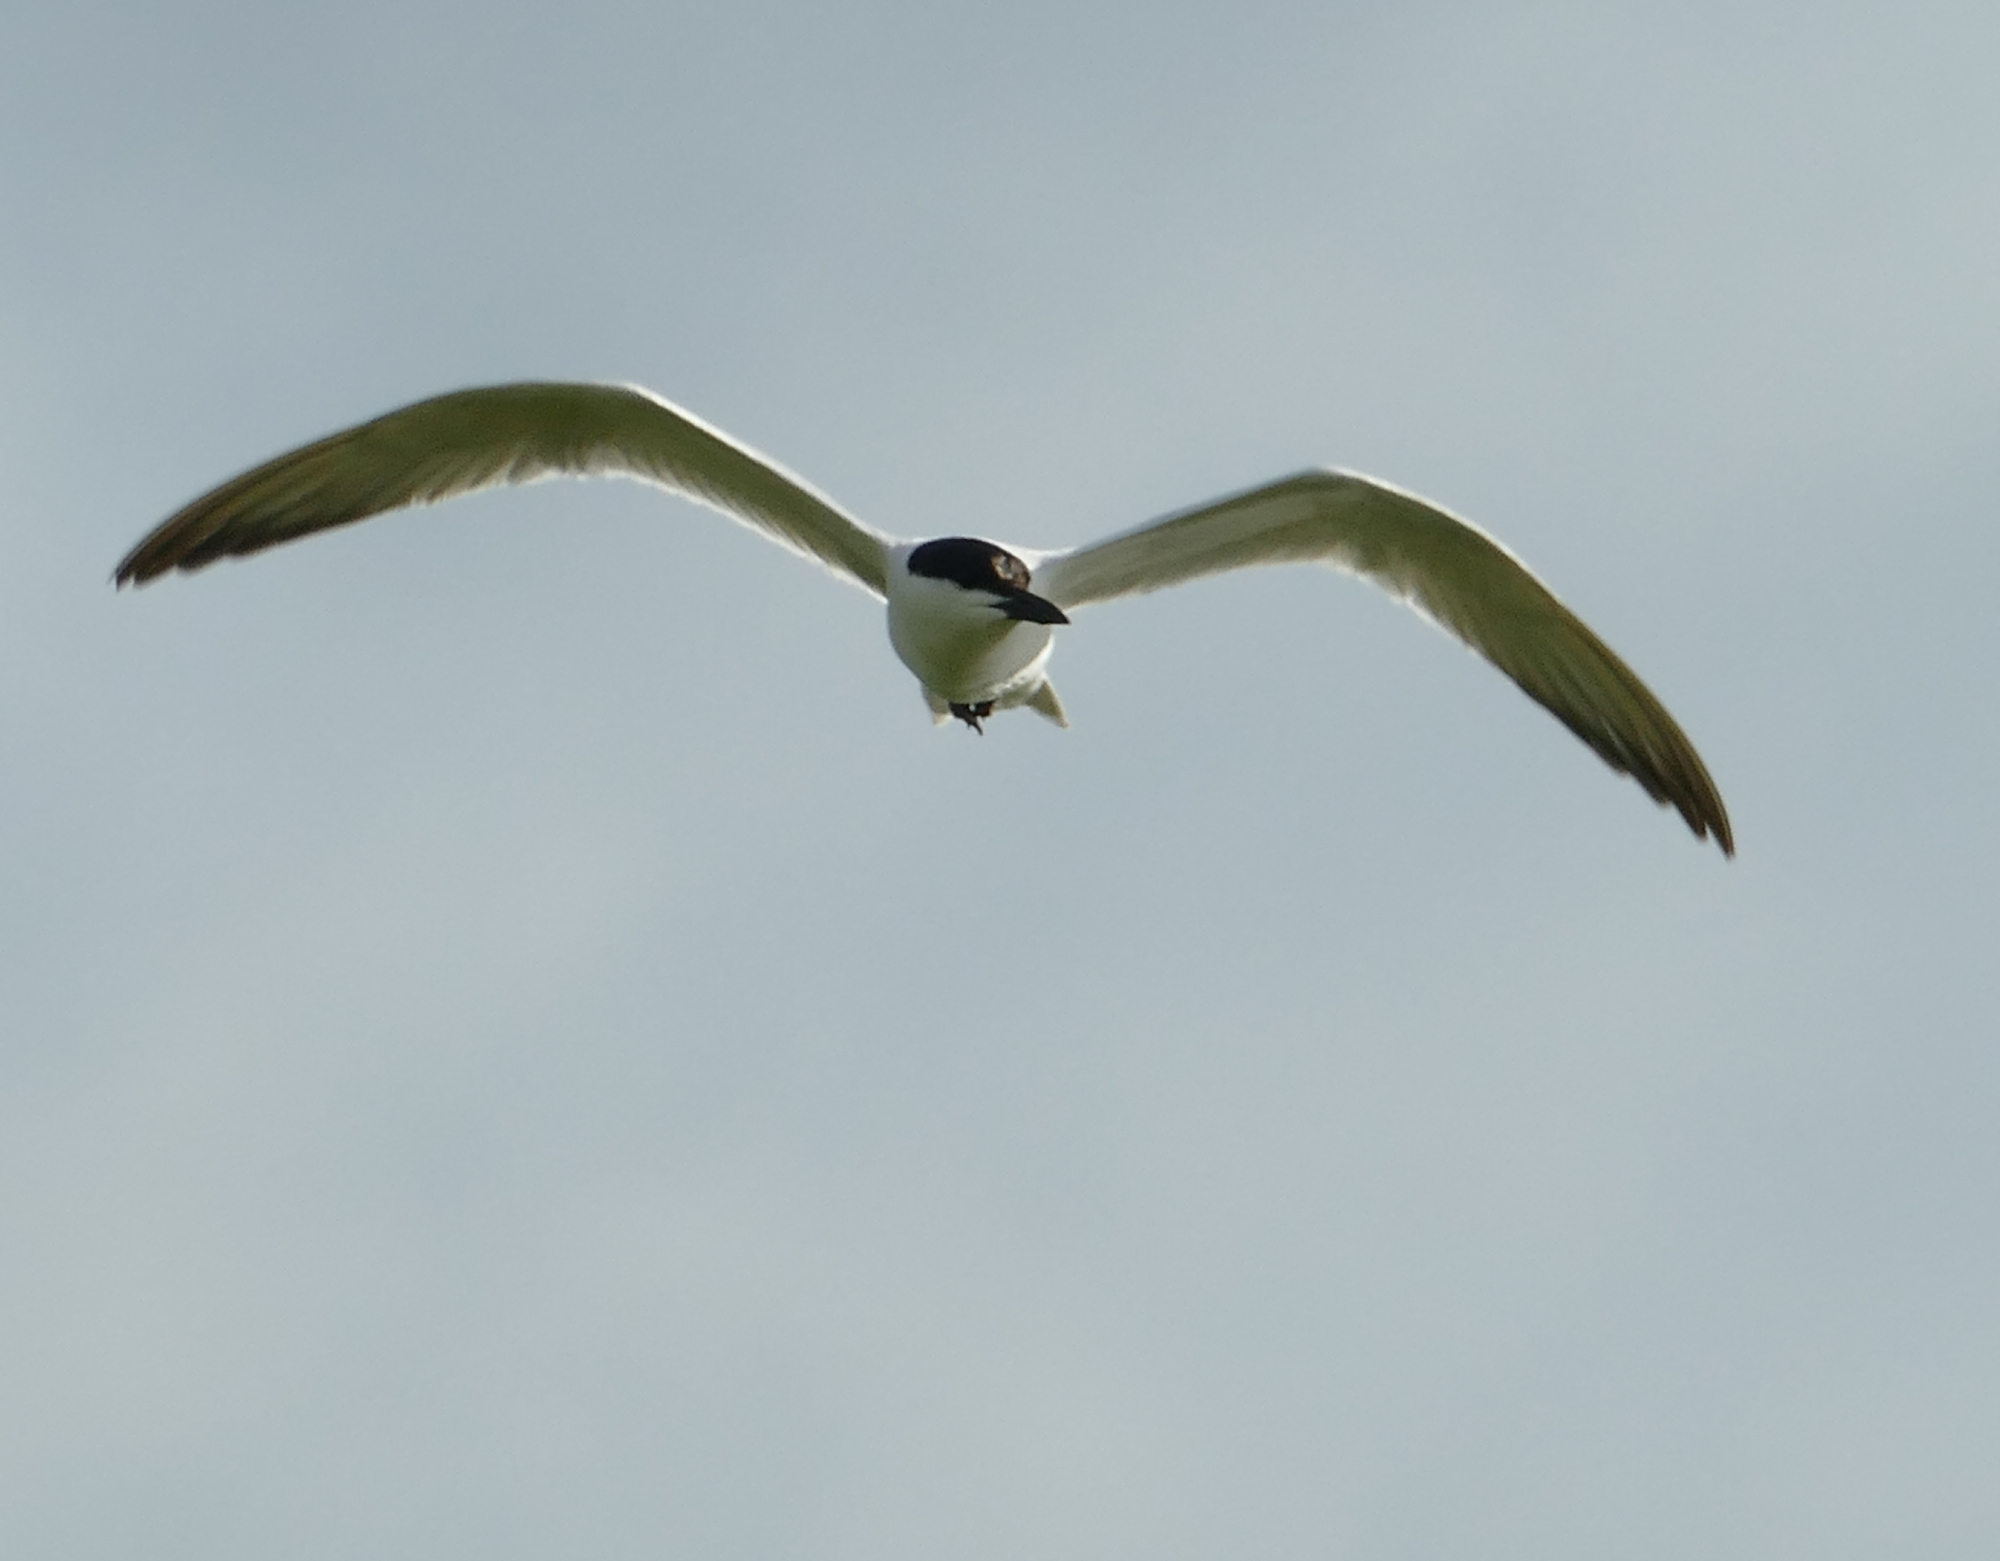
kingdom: Animalia
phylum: Chordata
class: Aves
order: Charadriiformes
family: Laridae
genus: Gelochelidon
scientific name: Gelochelidon nilotica
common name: Gull-billed tern
